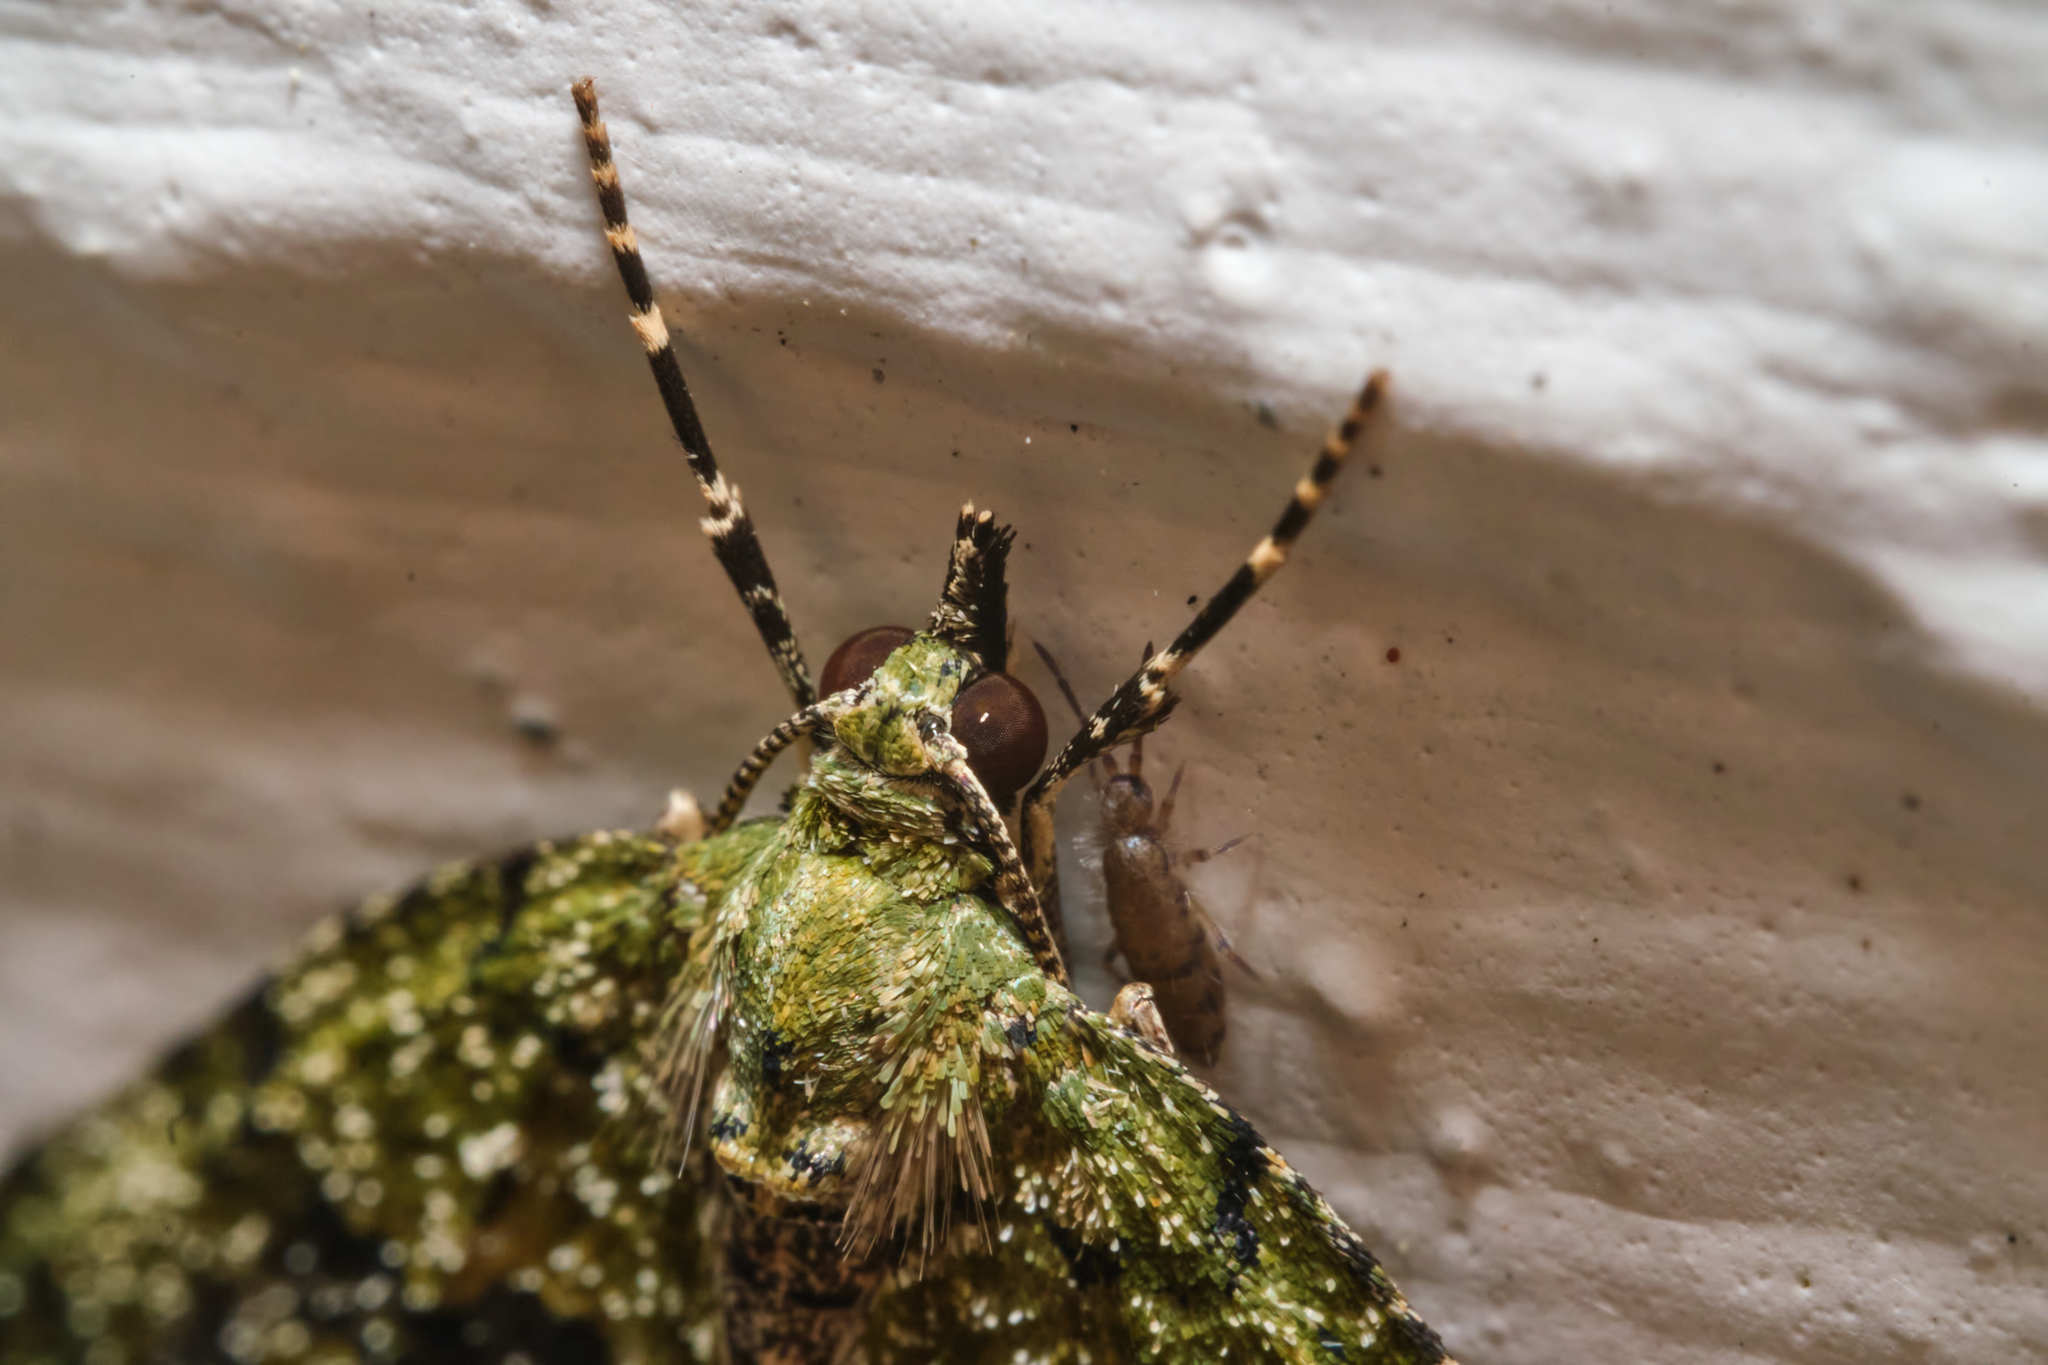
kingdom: Animalia
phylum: Arthropoda
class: Insecta
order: Lepidoptera
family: Geometridae
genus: Acasis
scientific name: Acasis viretata
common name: Yellow-barred brindle
